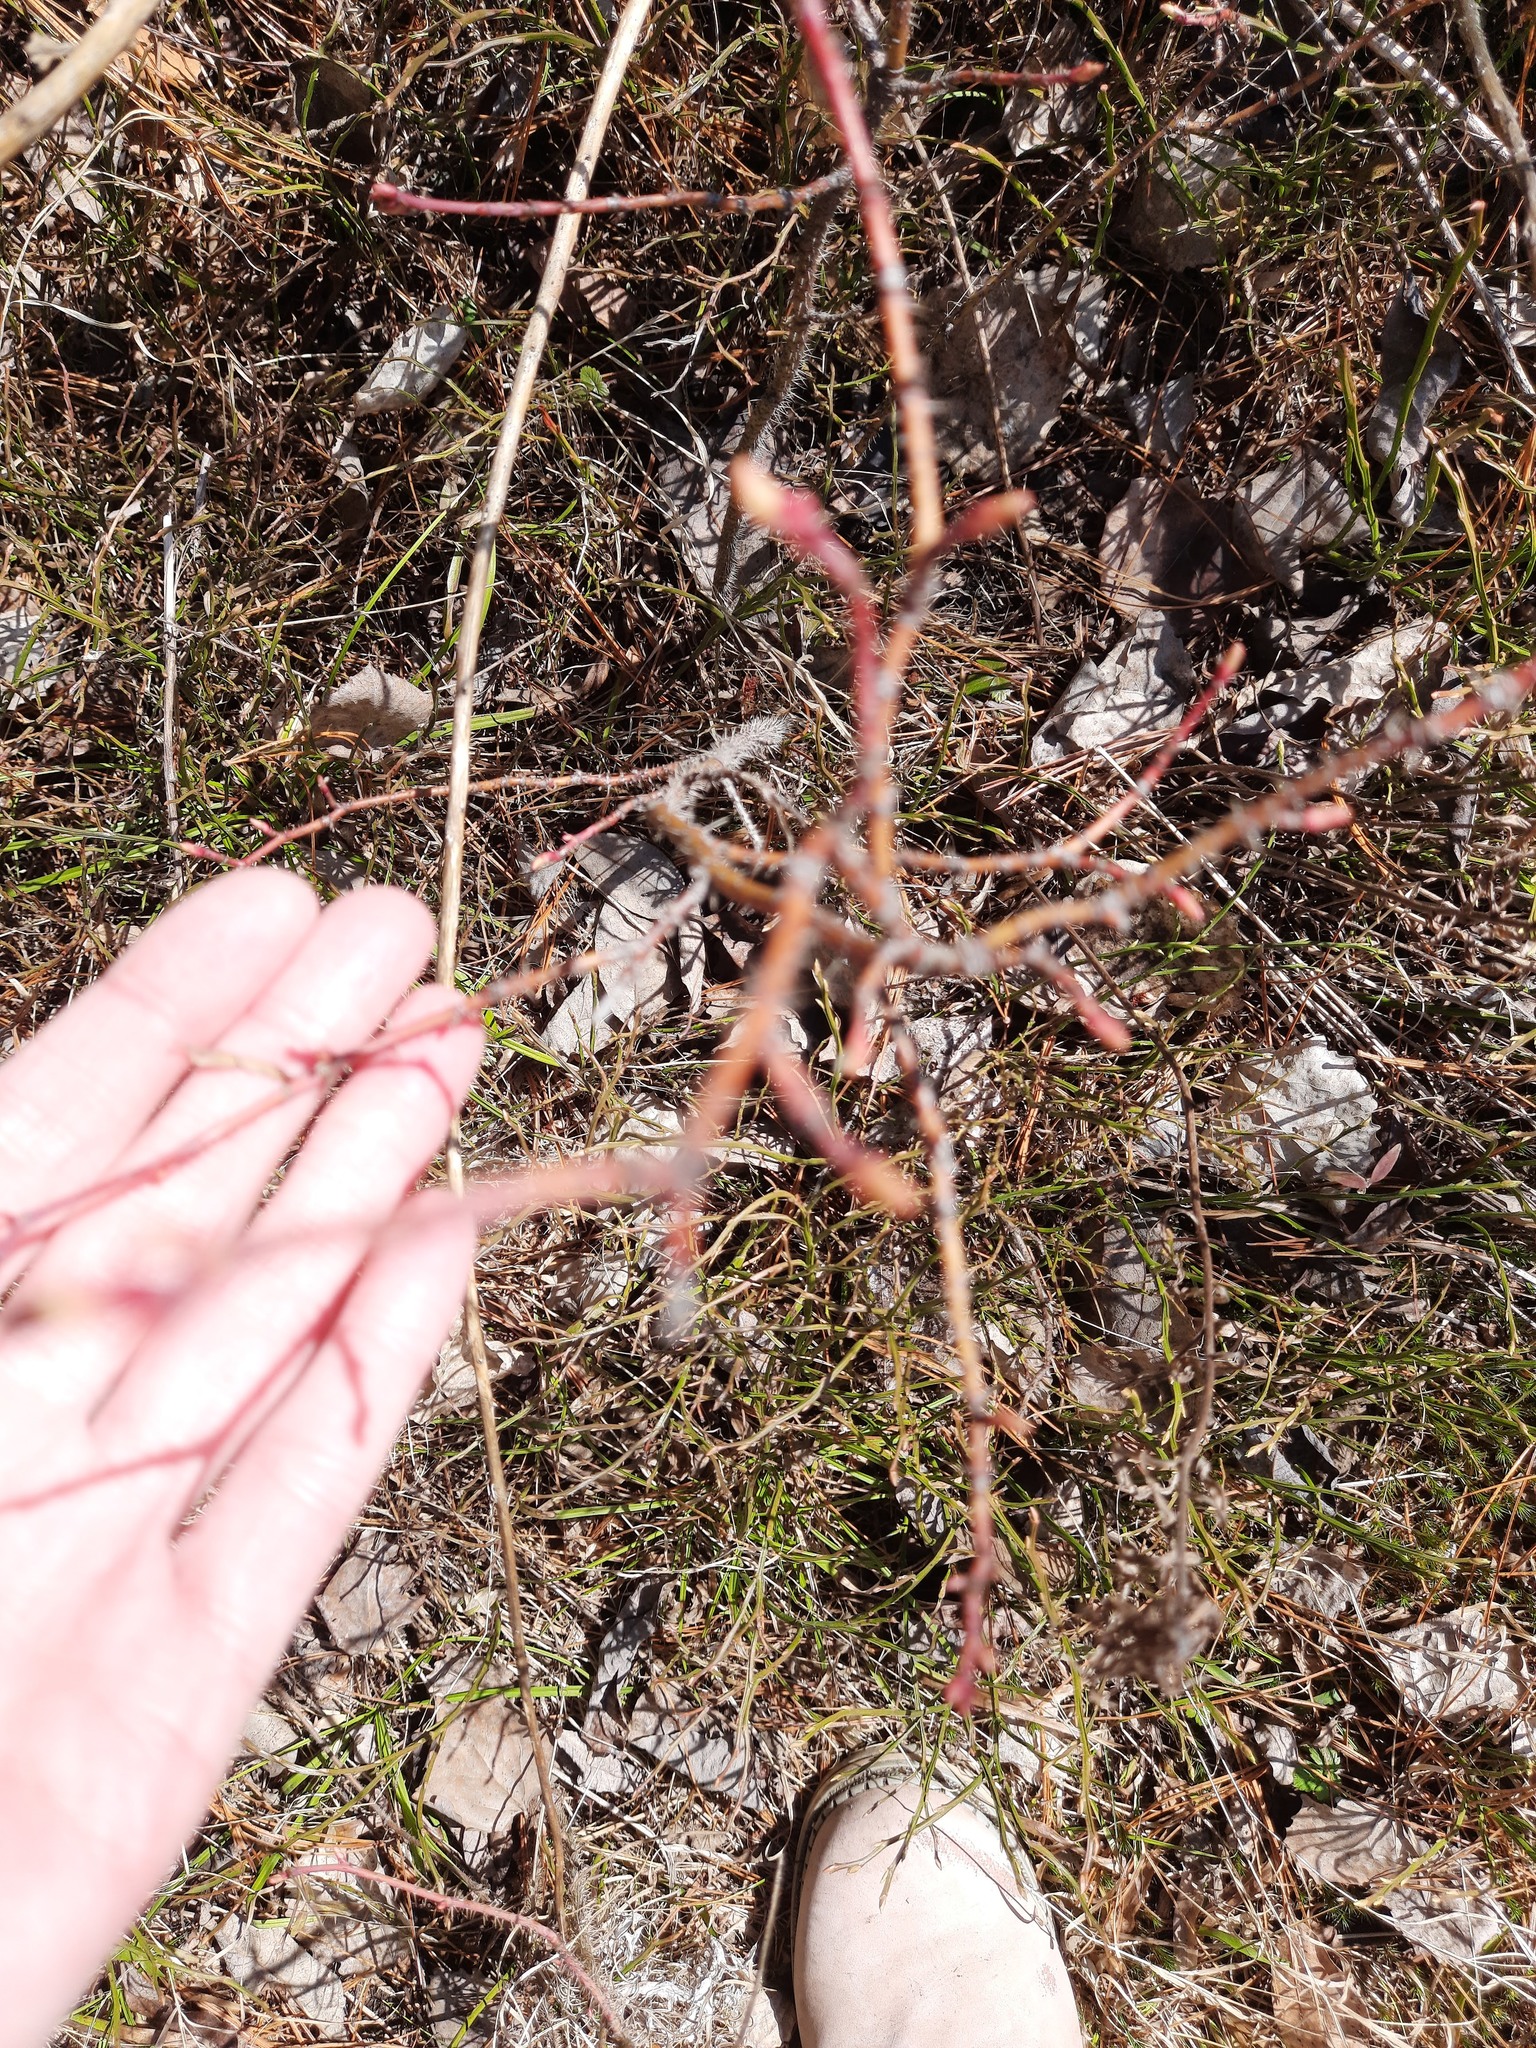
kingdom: Plantae
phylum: Tracheophyta
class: Magnoliopsida
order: Rosales
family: Rosaceae
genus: Rosa
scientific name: Rosa acicularis
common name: Prickly rose
